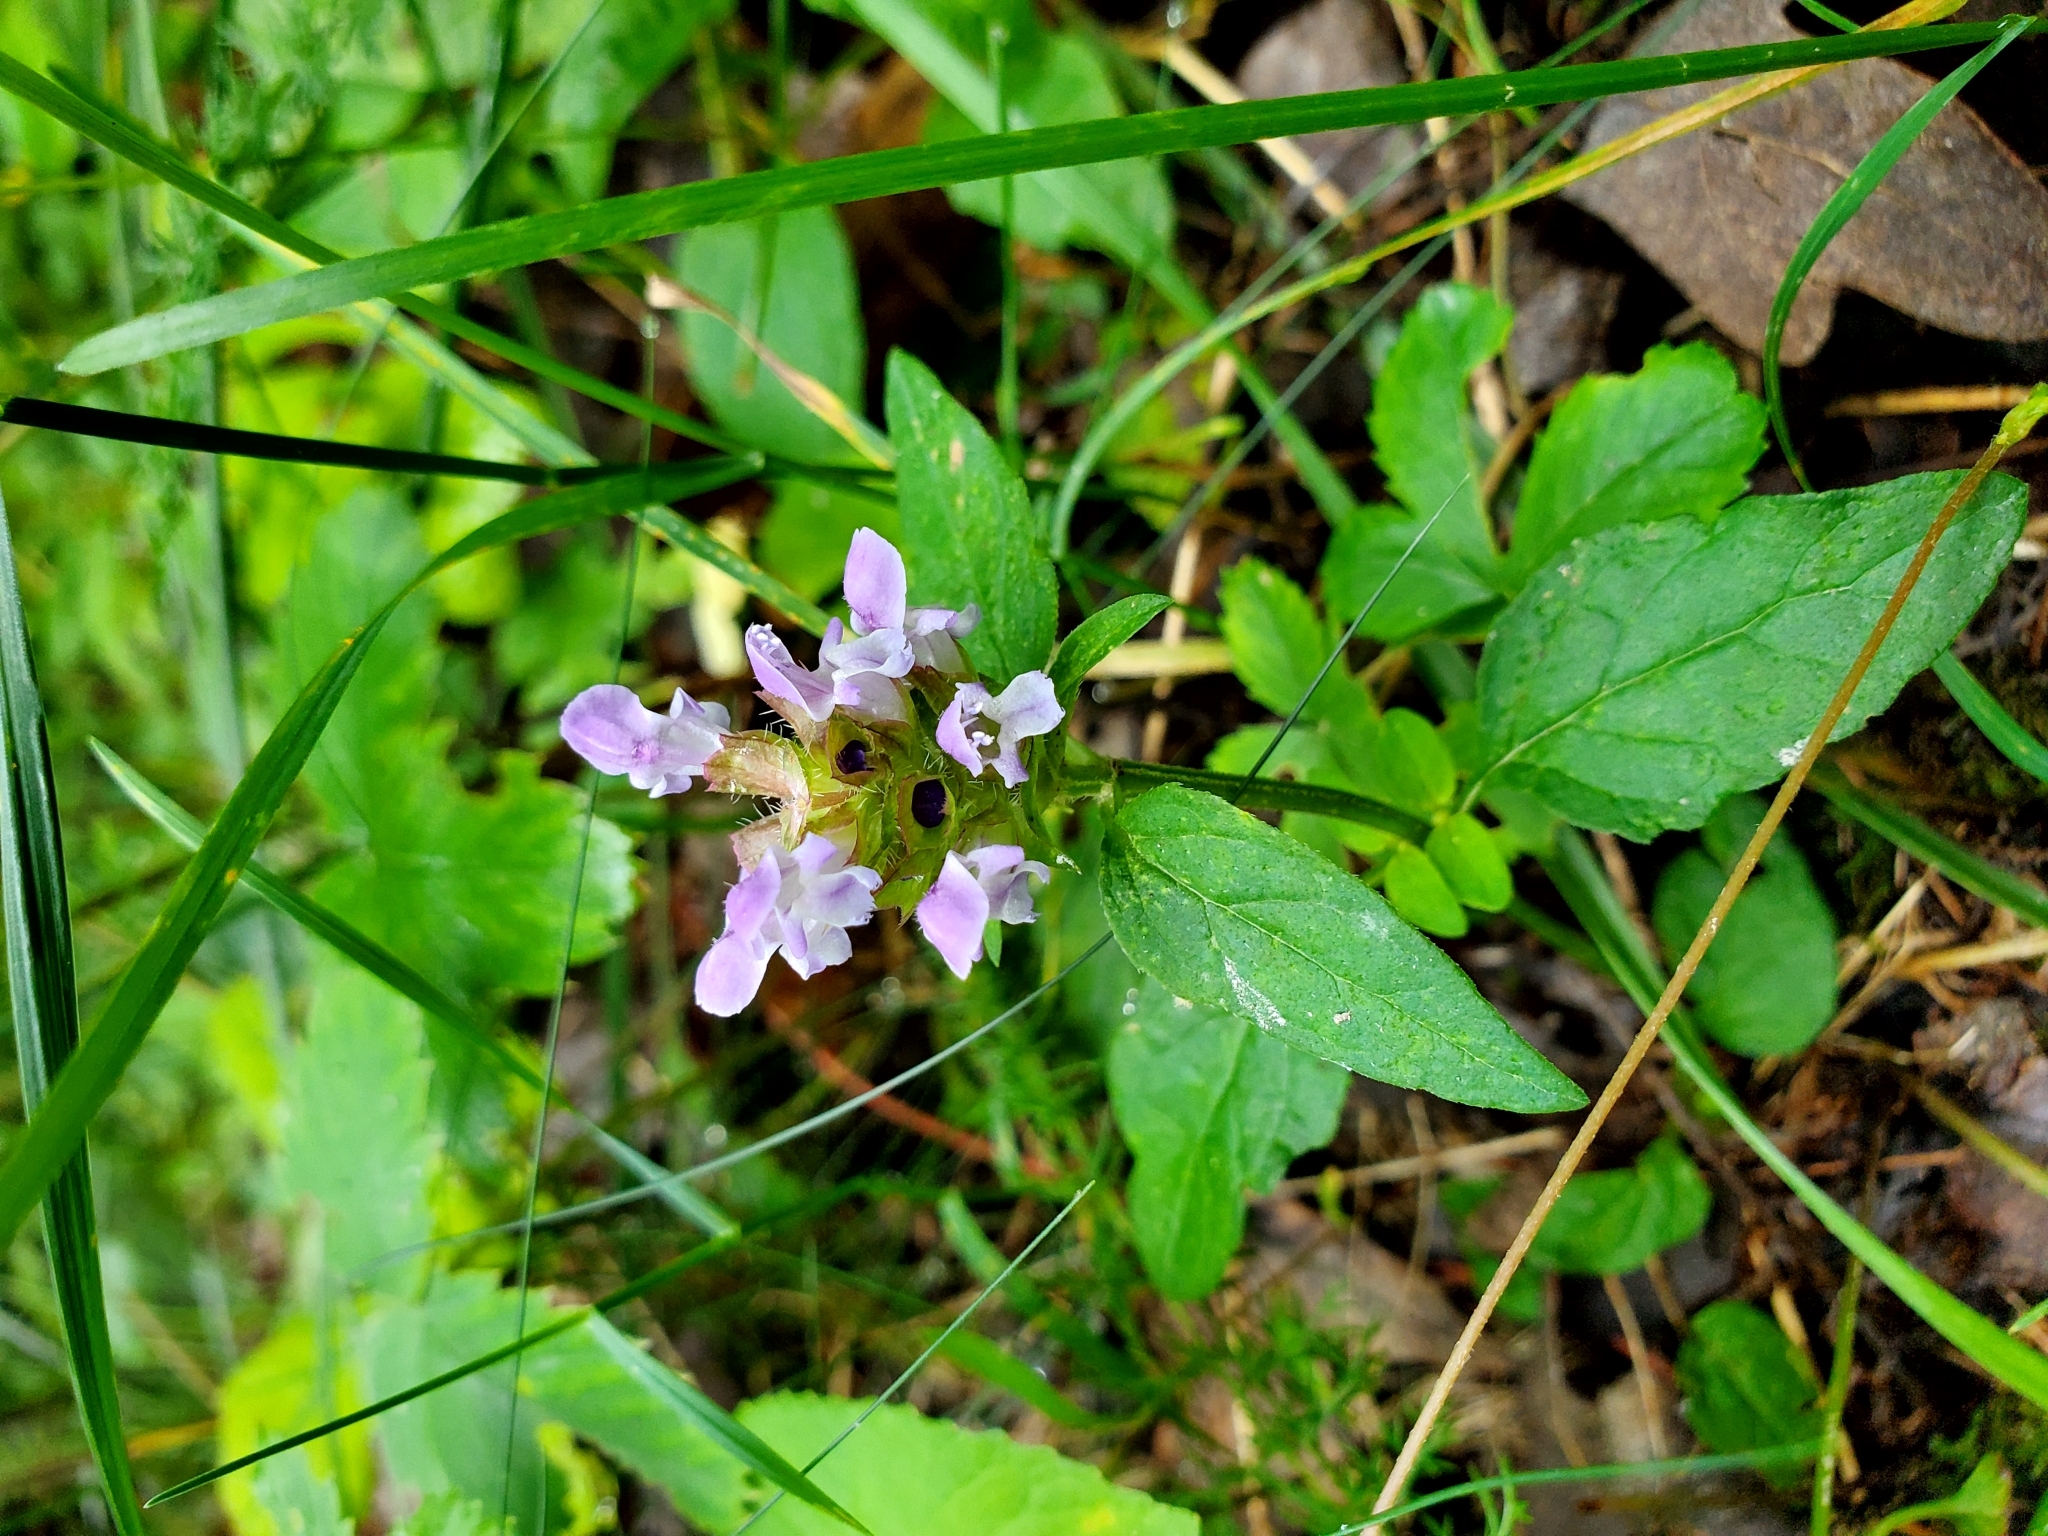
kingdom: Plantae
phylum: Tracheophyta
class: Magnoliopsida
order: Lamiales
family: Lamiaceae
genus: Prunella
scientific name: Prunella vulgaris
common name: Heal-all
